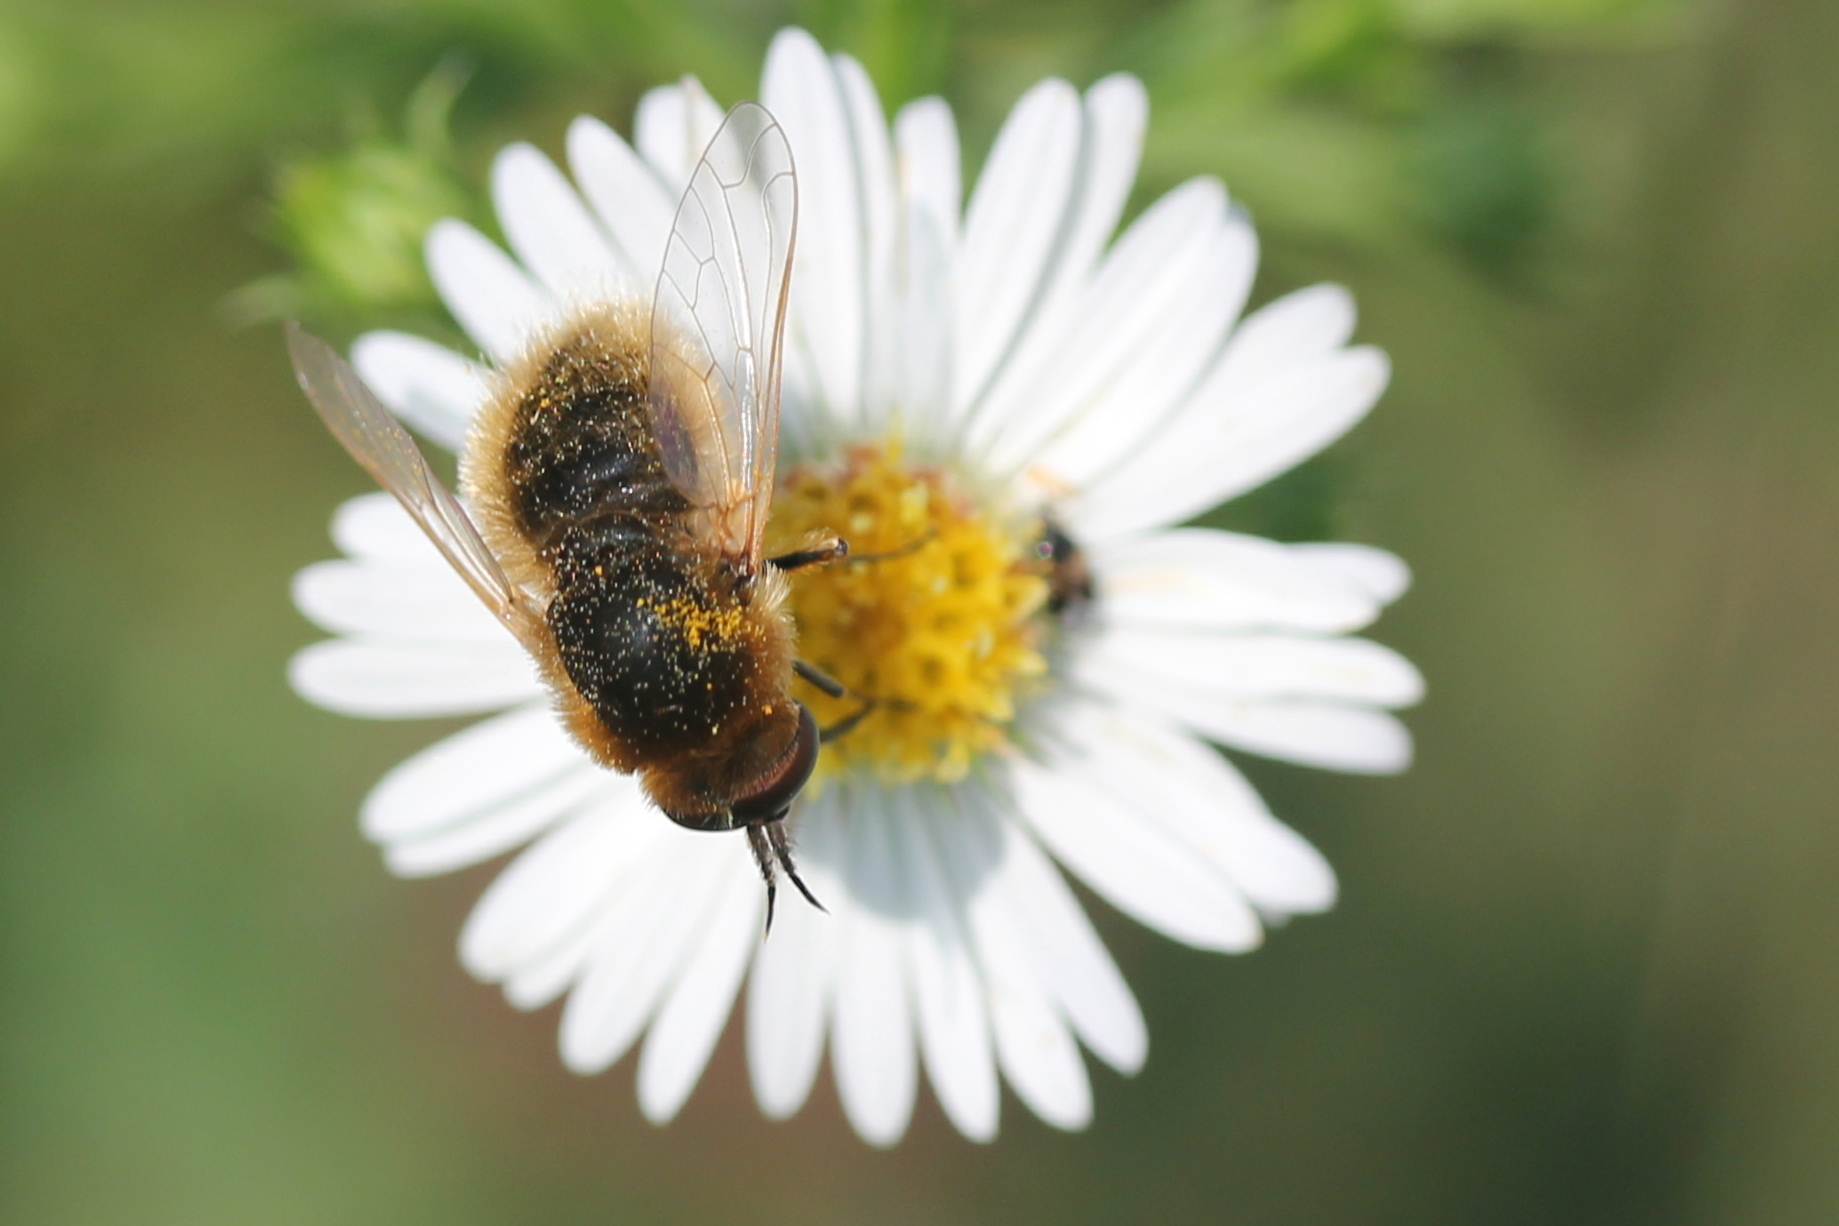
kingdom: Animalia
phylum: Arthropoda
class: Insecta
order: Diptera
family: Bombyliidae
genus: Sparnopolius
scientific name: Sparnopolius confusus
